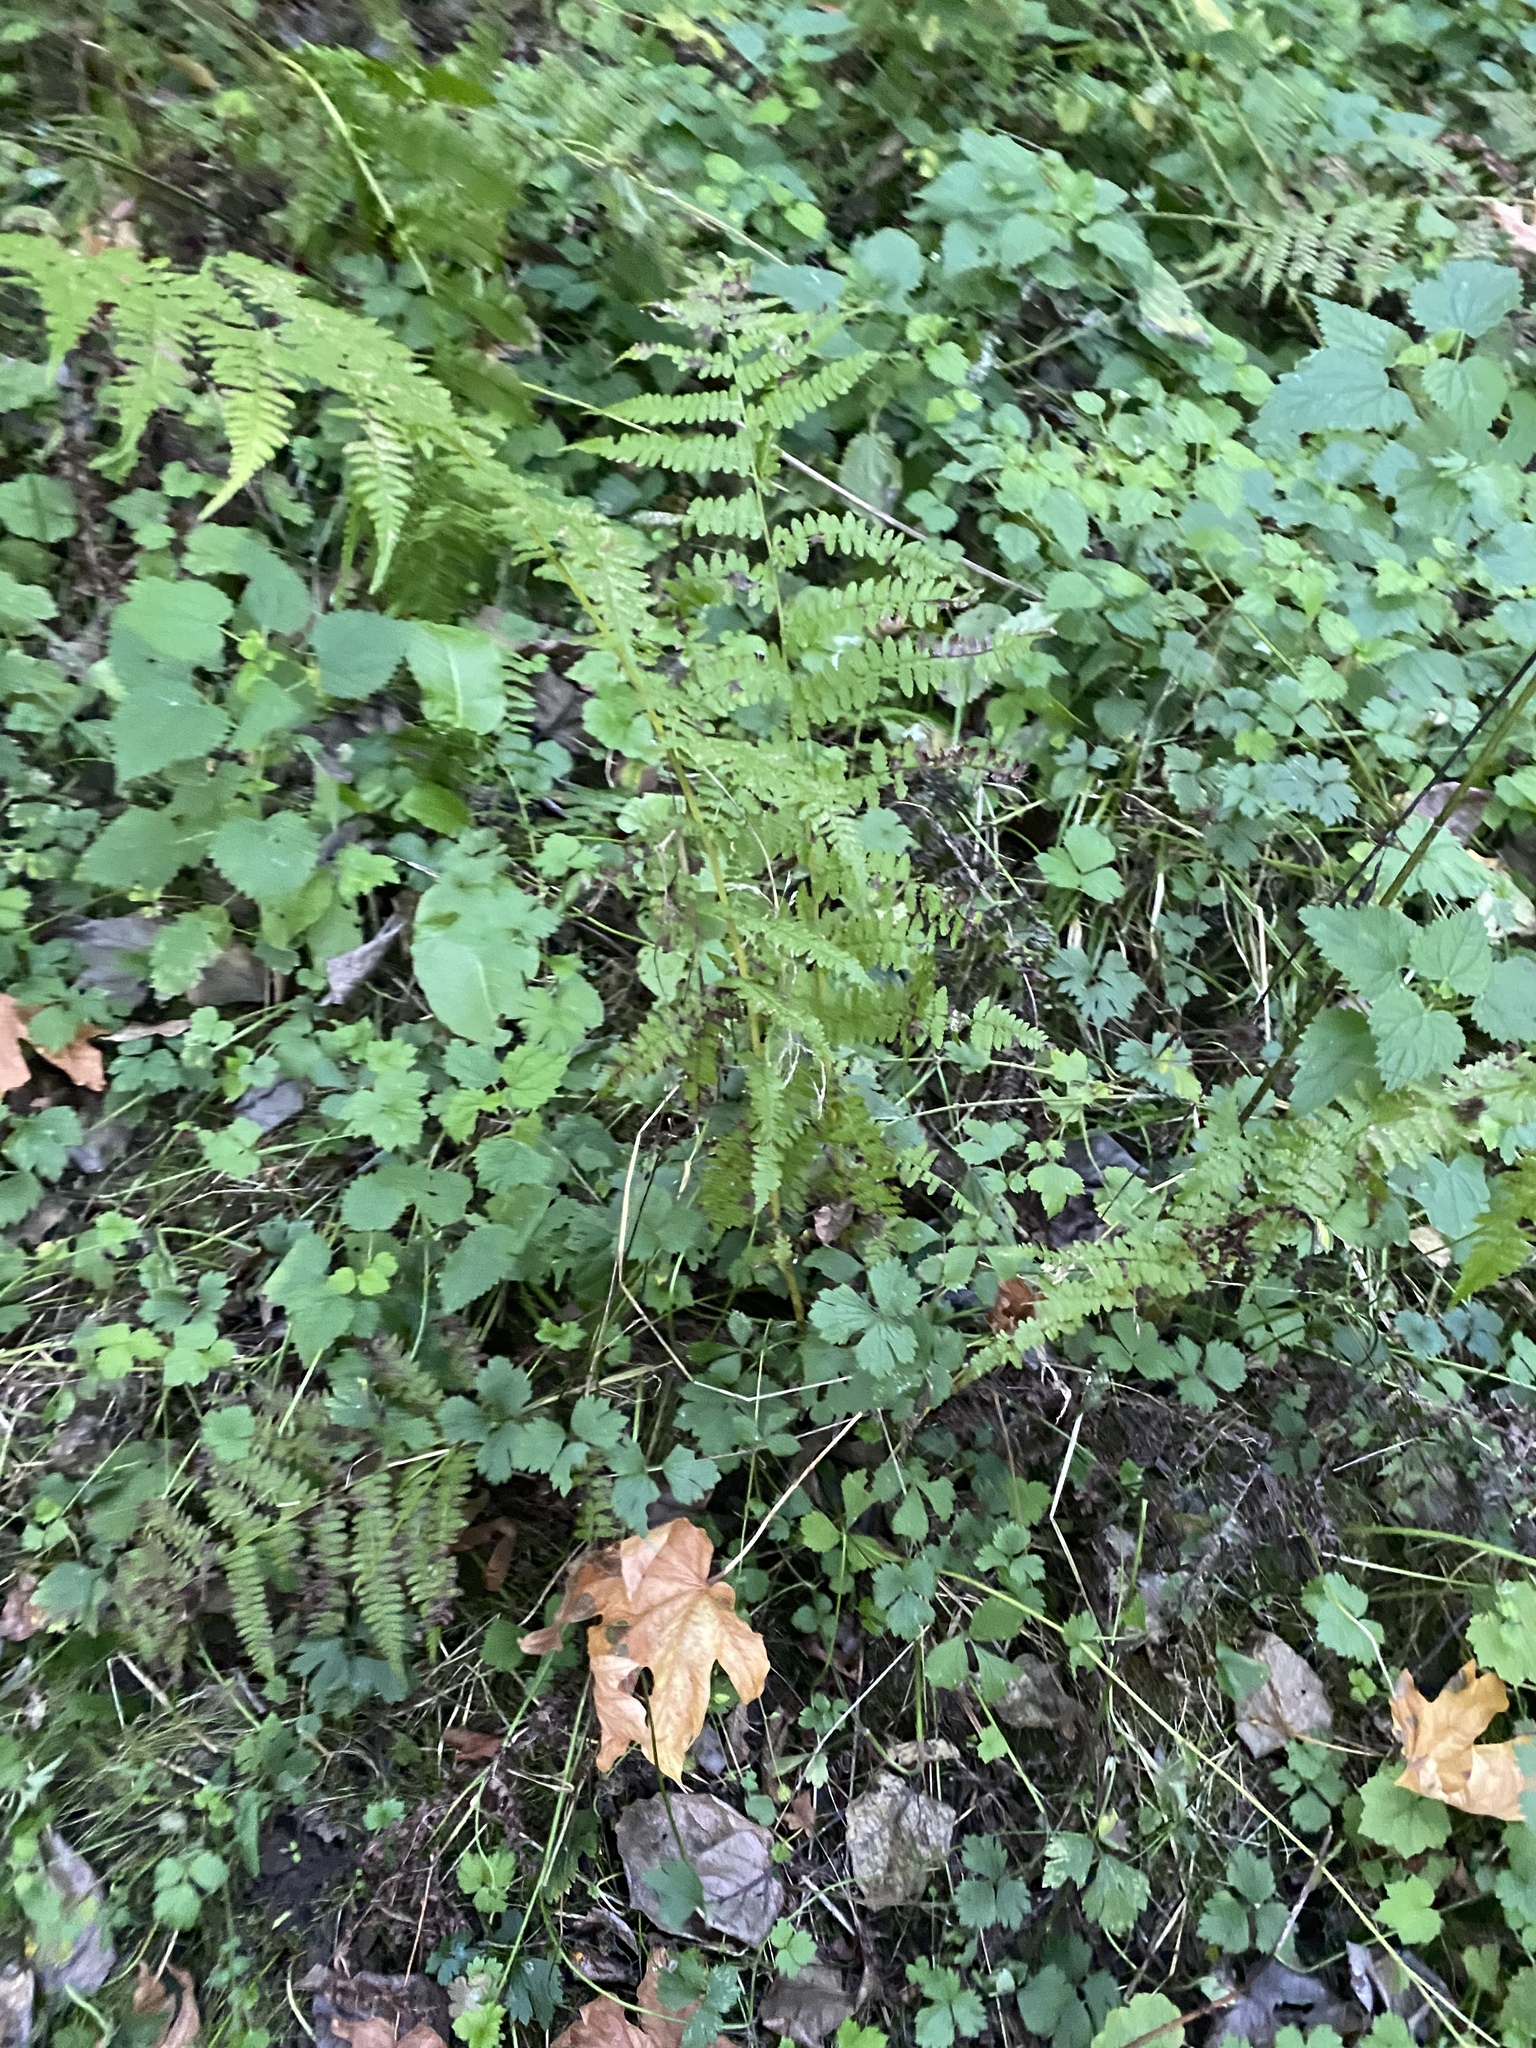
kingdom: Plantae
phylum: Tracheophyta
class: Polypodiopsida
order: Polypodiales
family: Athyriaceae
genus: Athyrium
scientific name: Athyrium filix-femina
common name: Lady fern
